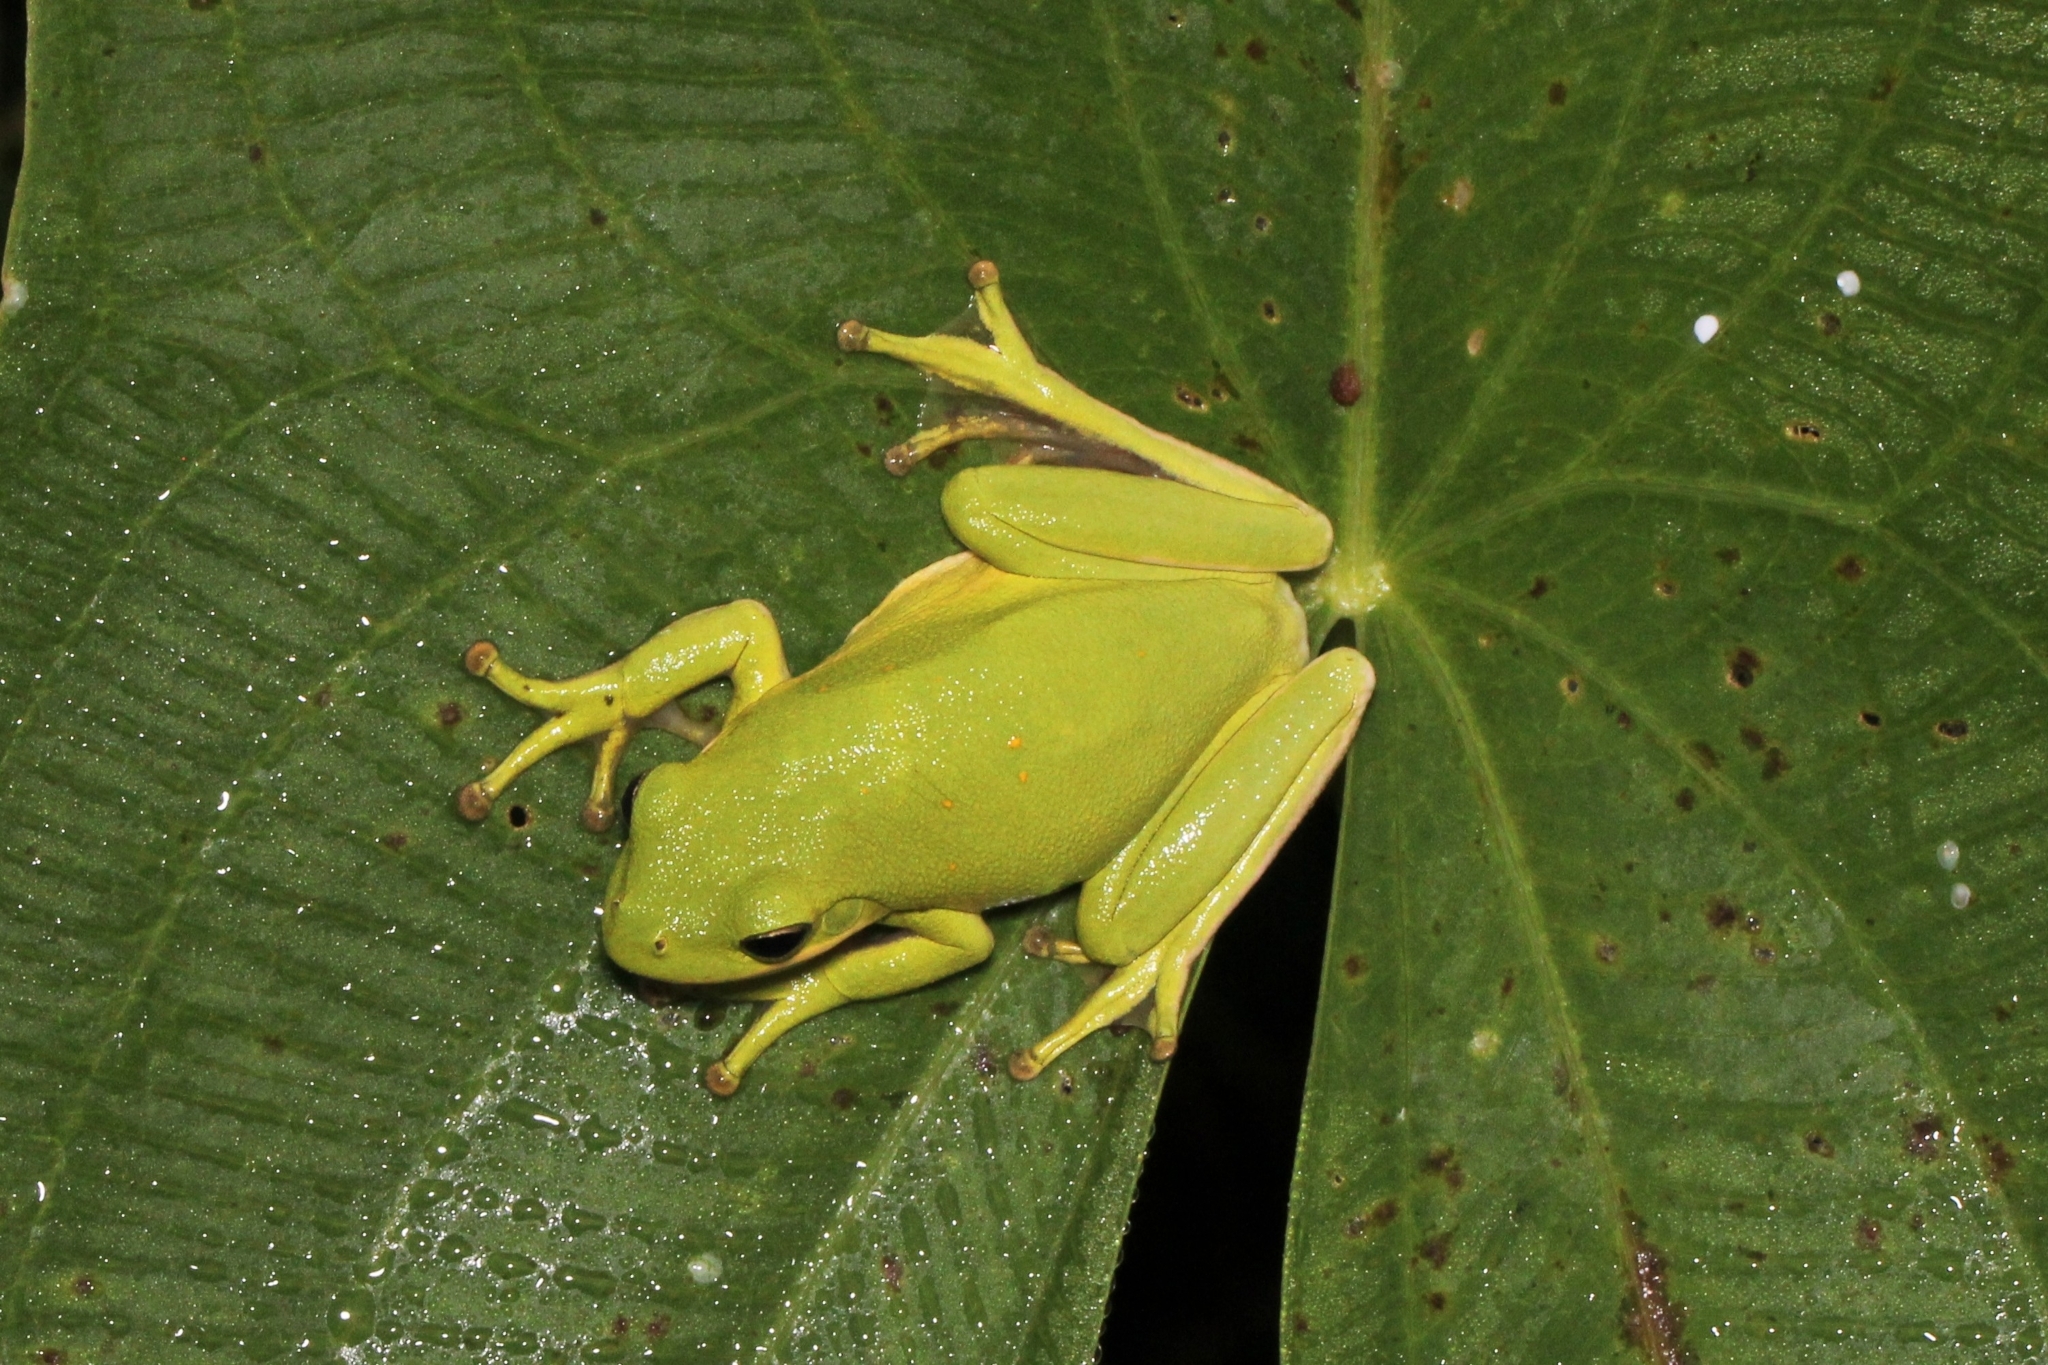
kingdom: Animalia
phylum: Chordata
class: Amphibia
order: Anura
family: Hylidae
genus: Dryophytes
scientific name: Dryophytes cinereus
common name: Green treefrog
